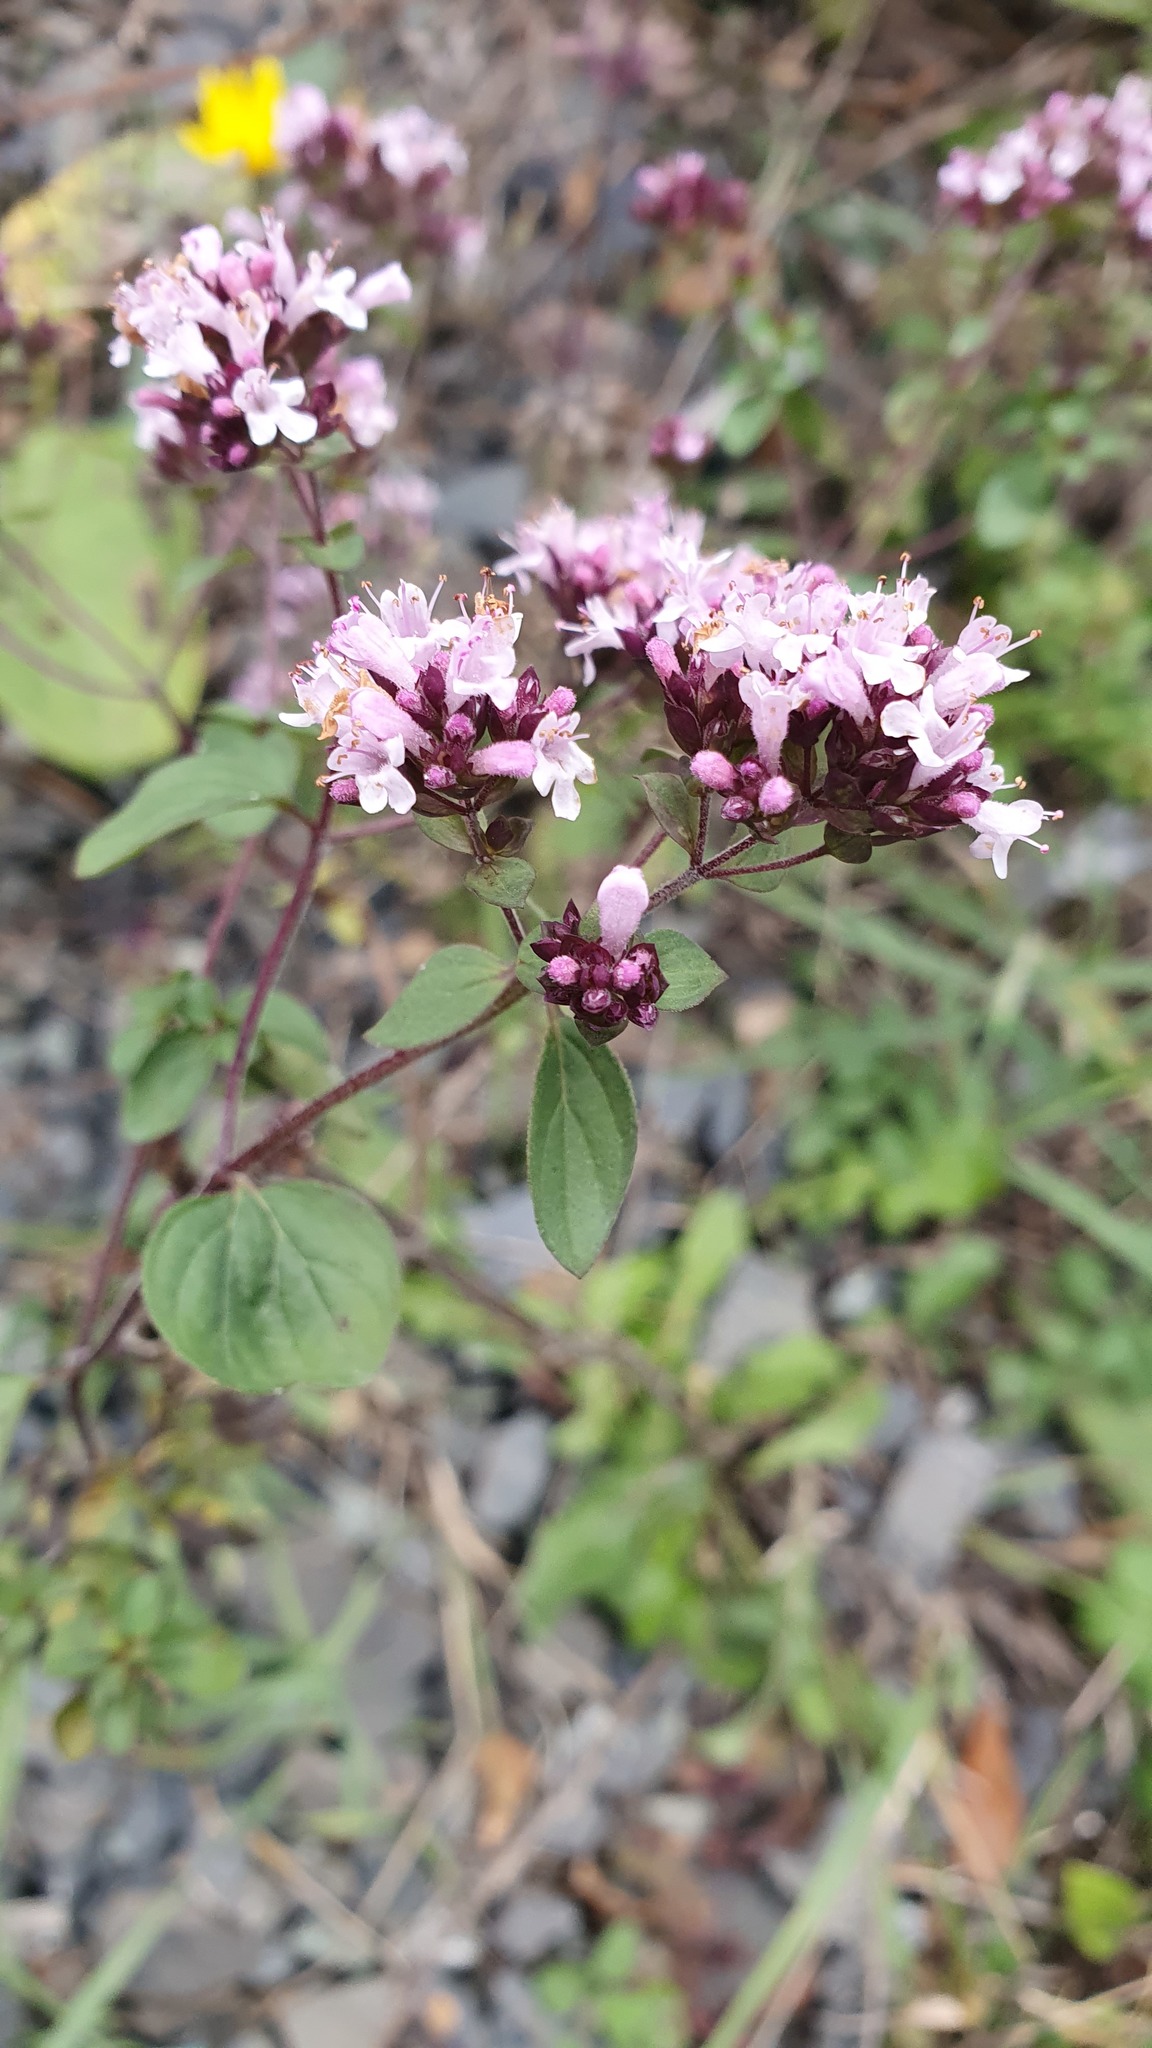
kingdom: Plantae
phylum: Tracheophyta
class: Magnoliopsida
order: Lamiales
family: Lamiaceae
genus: Origanum
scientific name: Origanum vulgare
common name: Wild marjoram
